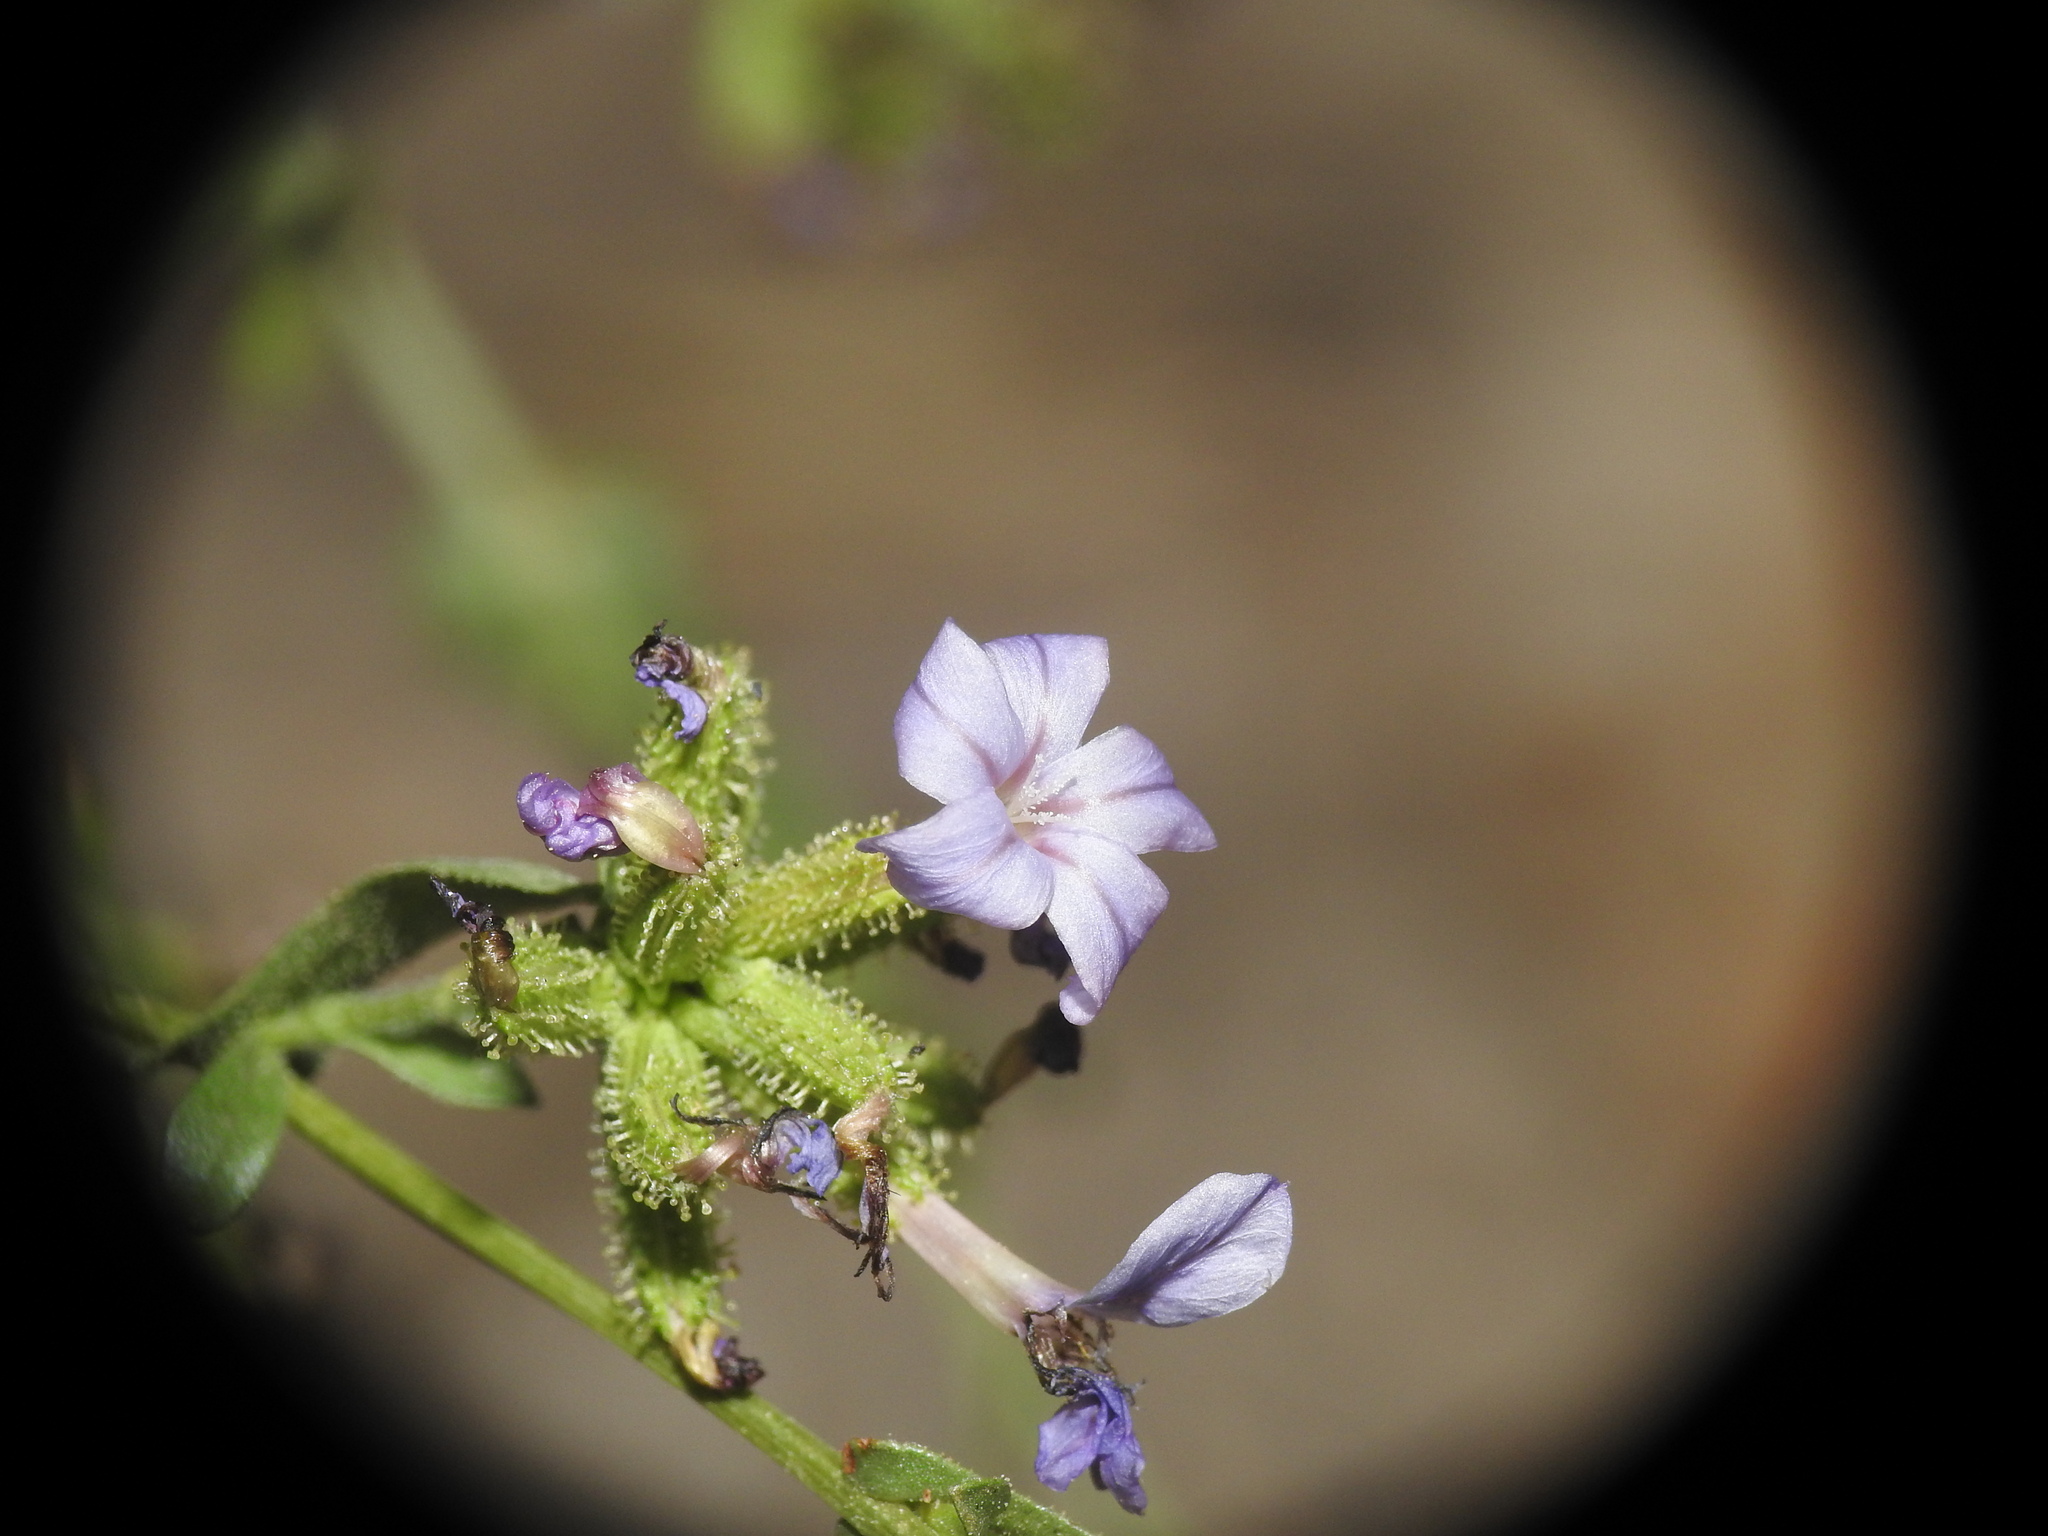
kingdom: Plantae
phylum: Tracheophyta
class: Magnoliopsida
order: Caryophyllales
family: Plumbaginaceae
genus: Plumbago
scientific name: Plumbago europaea
